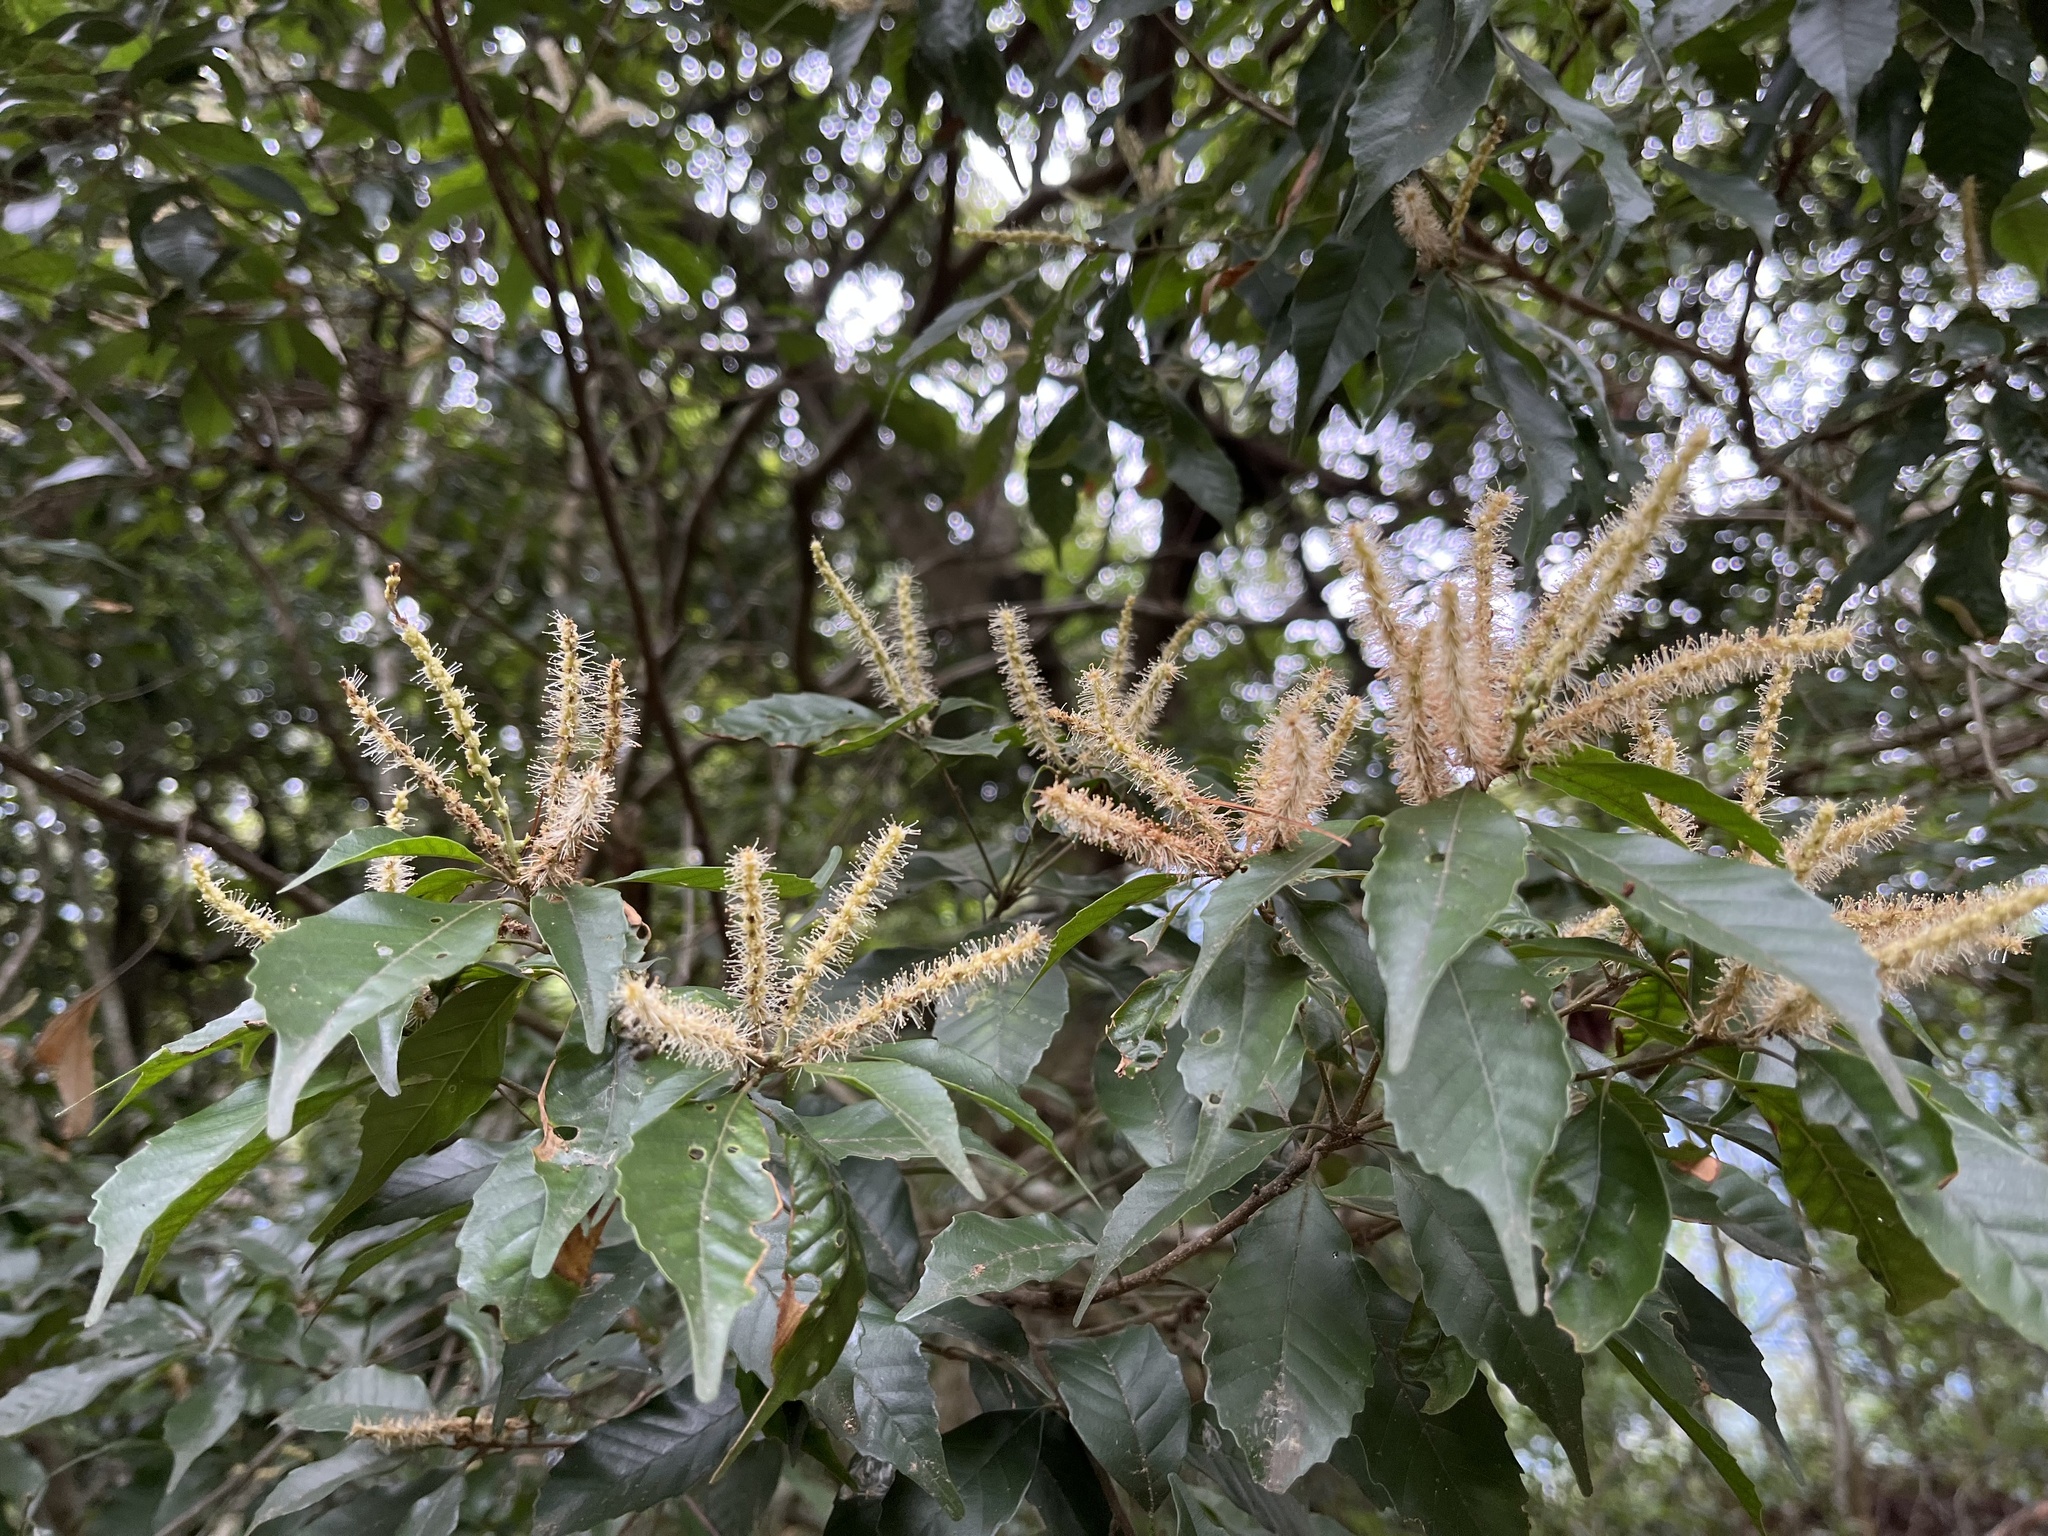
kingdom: Plantae
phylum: Tracheophyta
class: Magnoliopsida
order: Fagales
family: Fagaceae
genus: Lithocarpus
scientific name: Lithocarpus konishii
